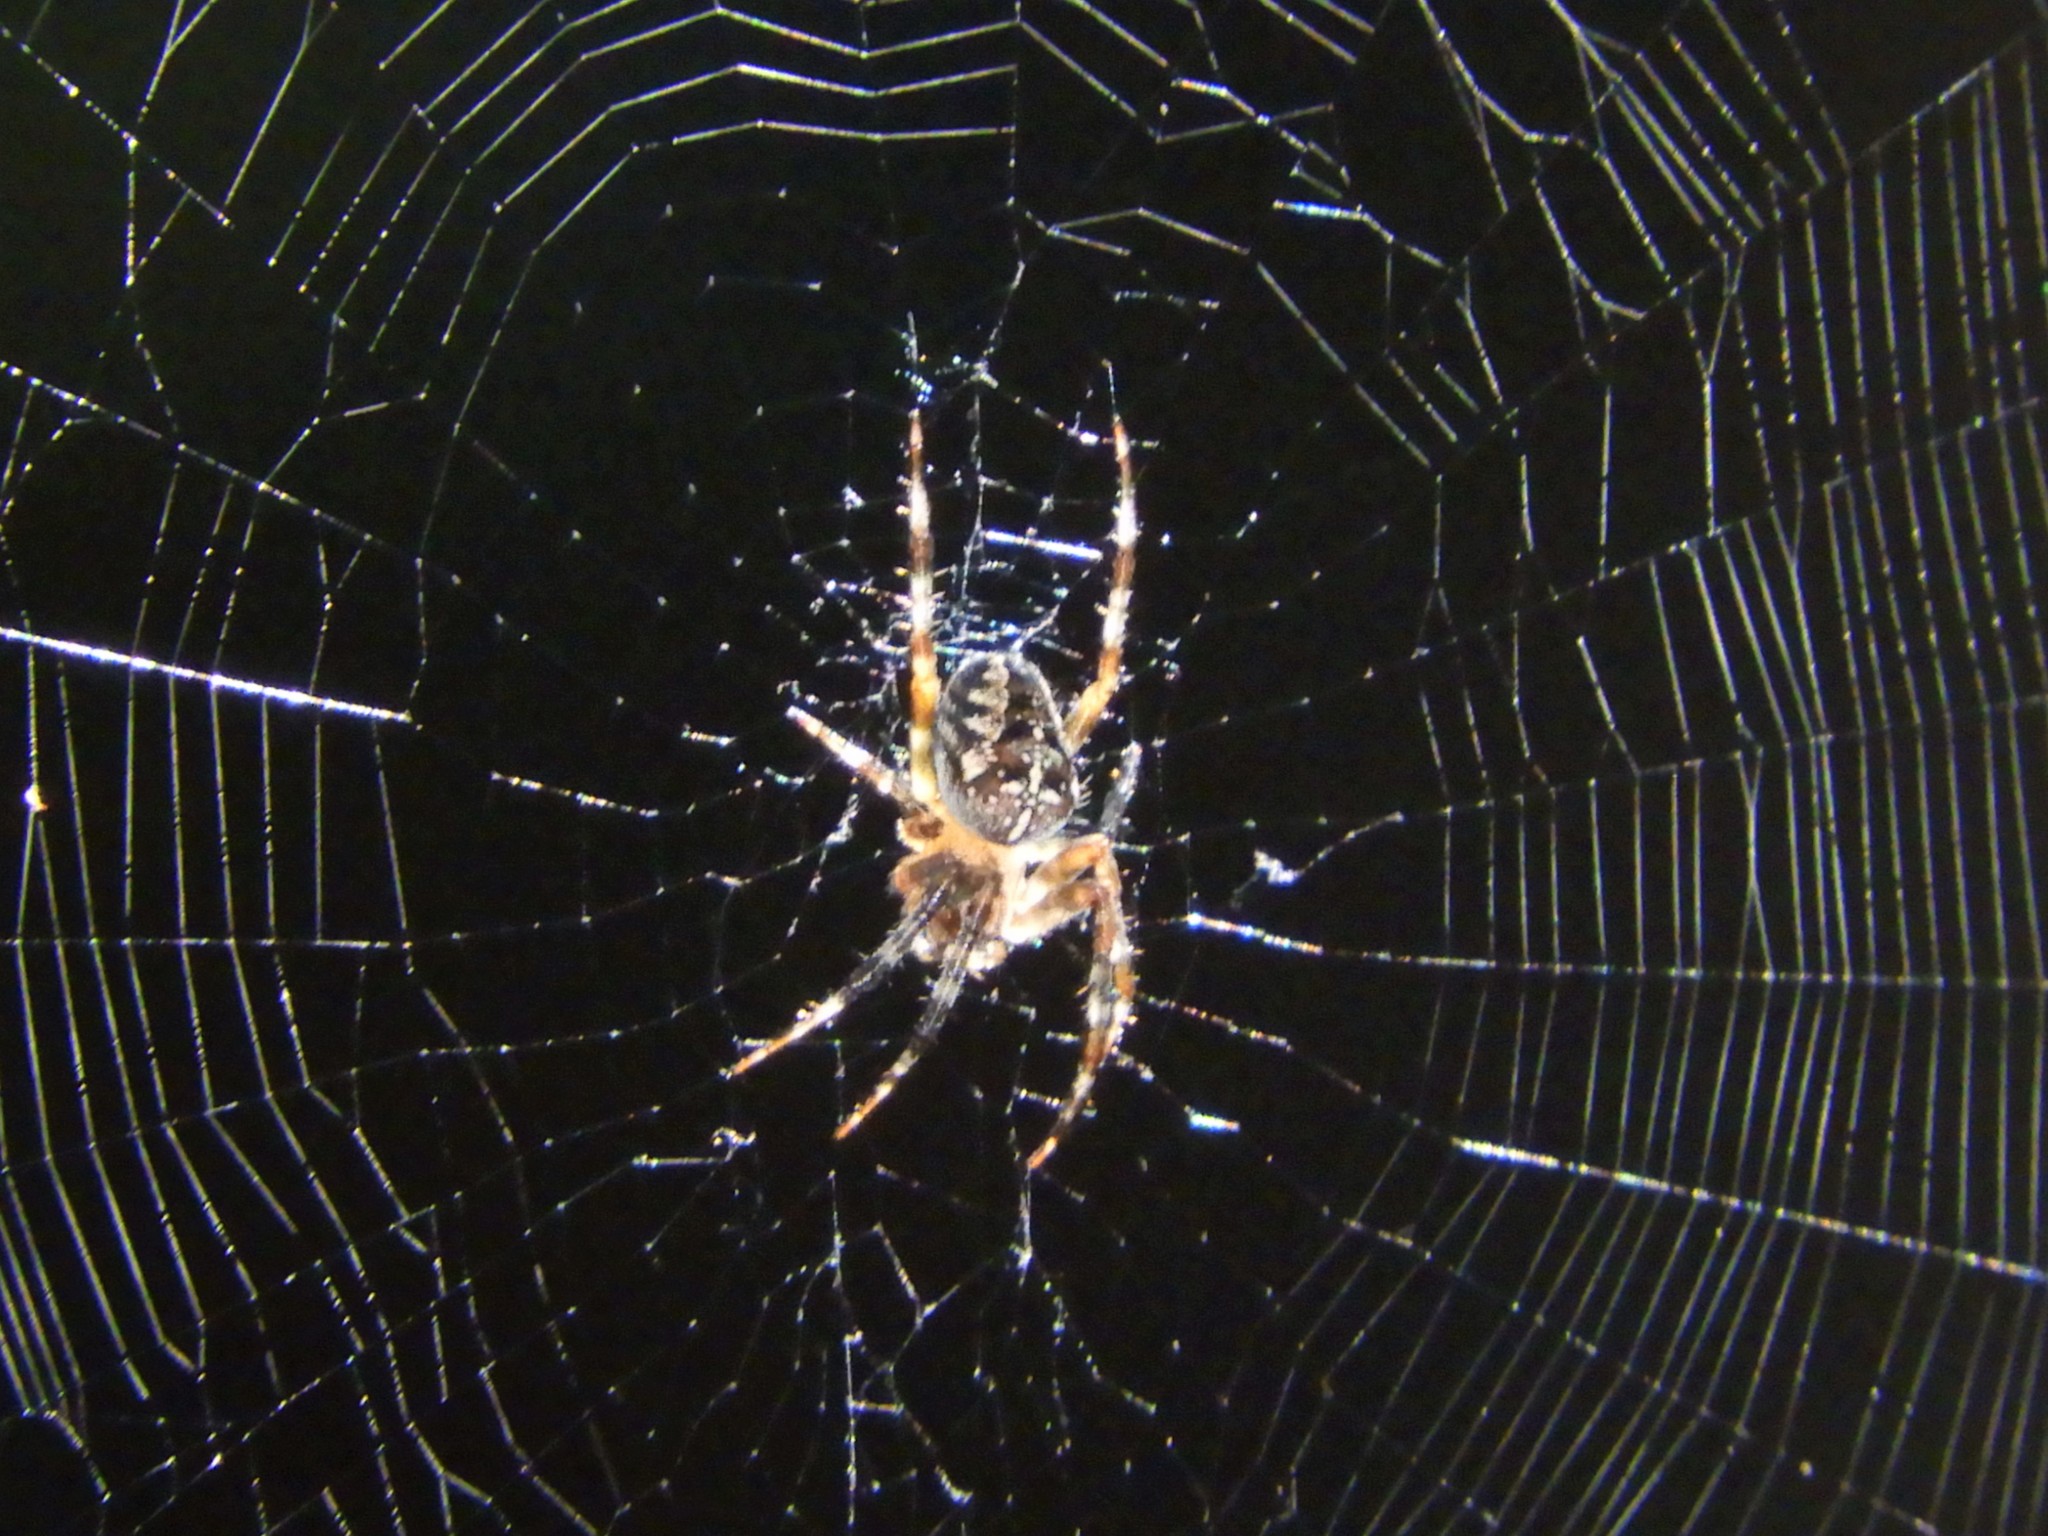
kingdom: Animalia
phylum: Arthropoda
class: Arachnida
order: Araneae
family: Araneidae
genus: Araneus
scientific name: Araneus diadematus
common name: Cross orbweaver
